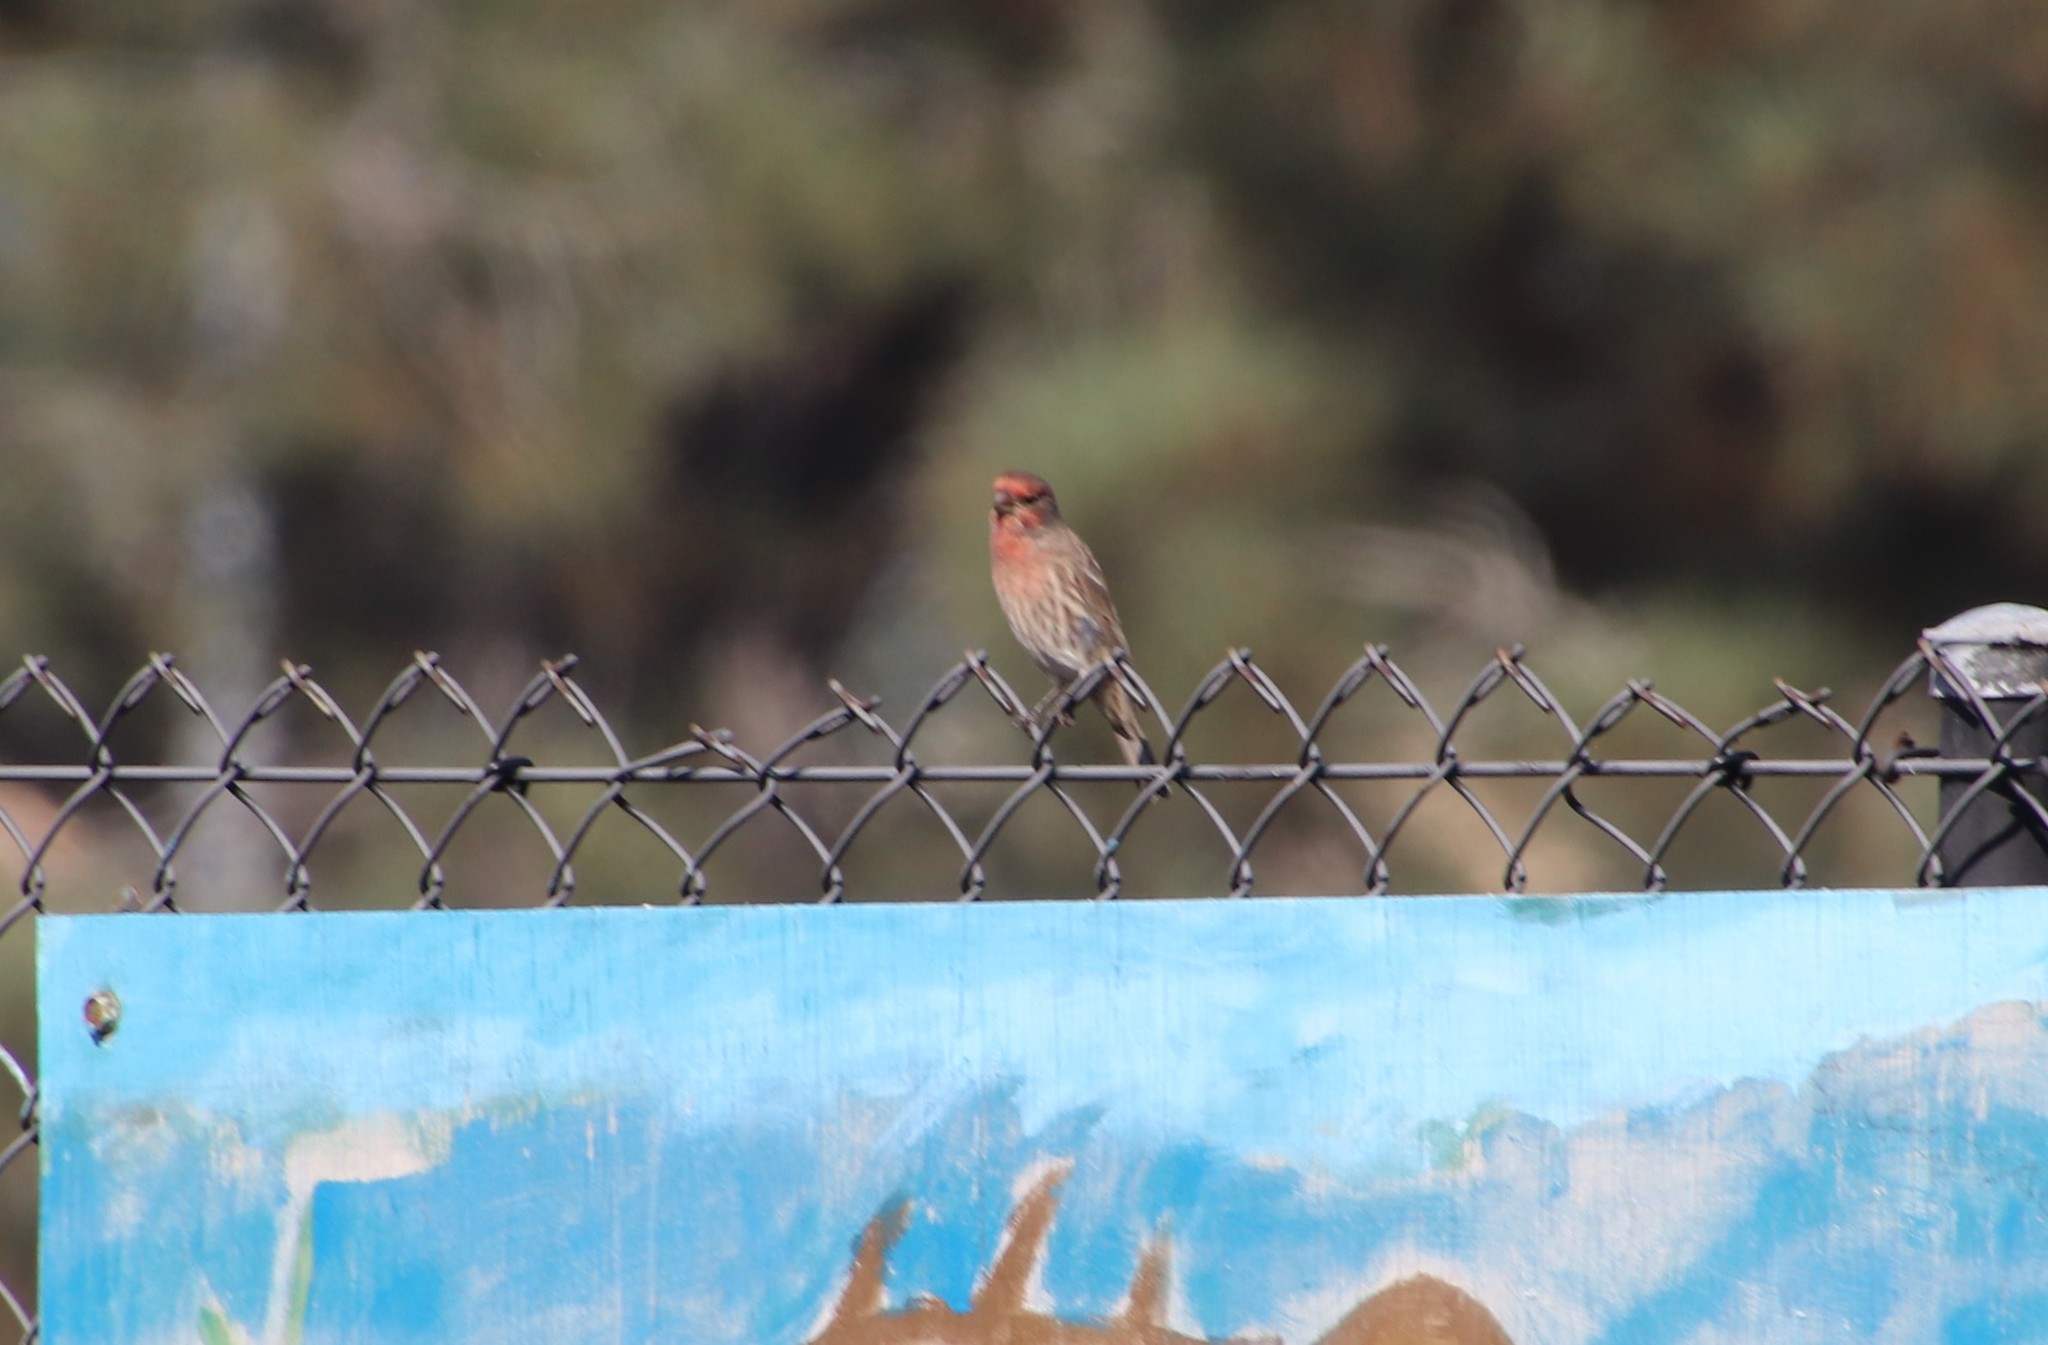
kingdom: Animalia
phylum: Chordata
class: Aves
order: Passeriformes
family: Fringillidae
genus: Haemorhous
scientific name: Haemorhous mexicanus
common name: House finch
